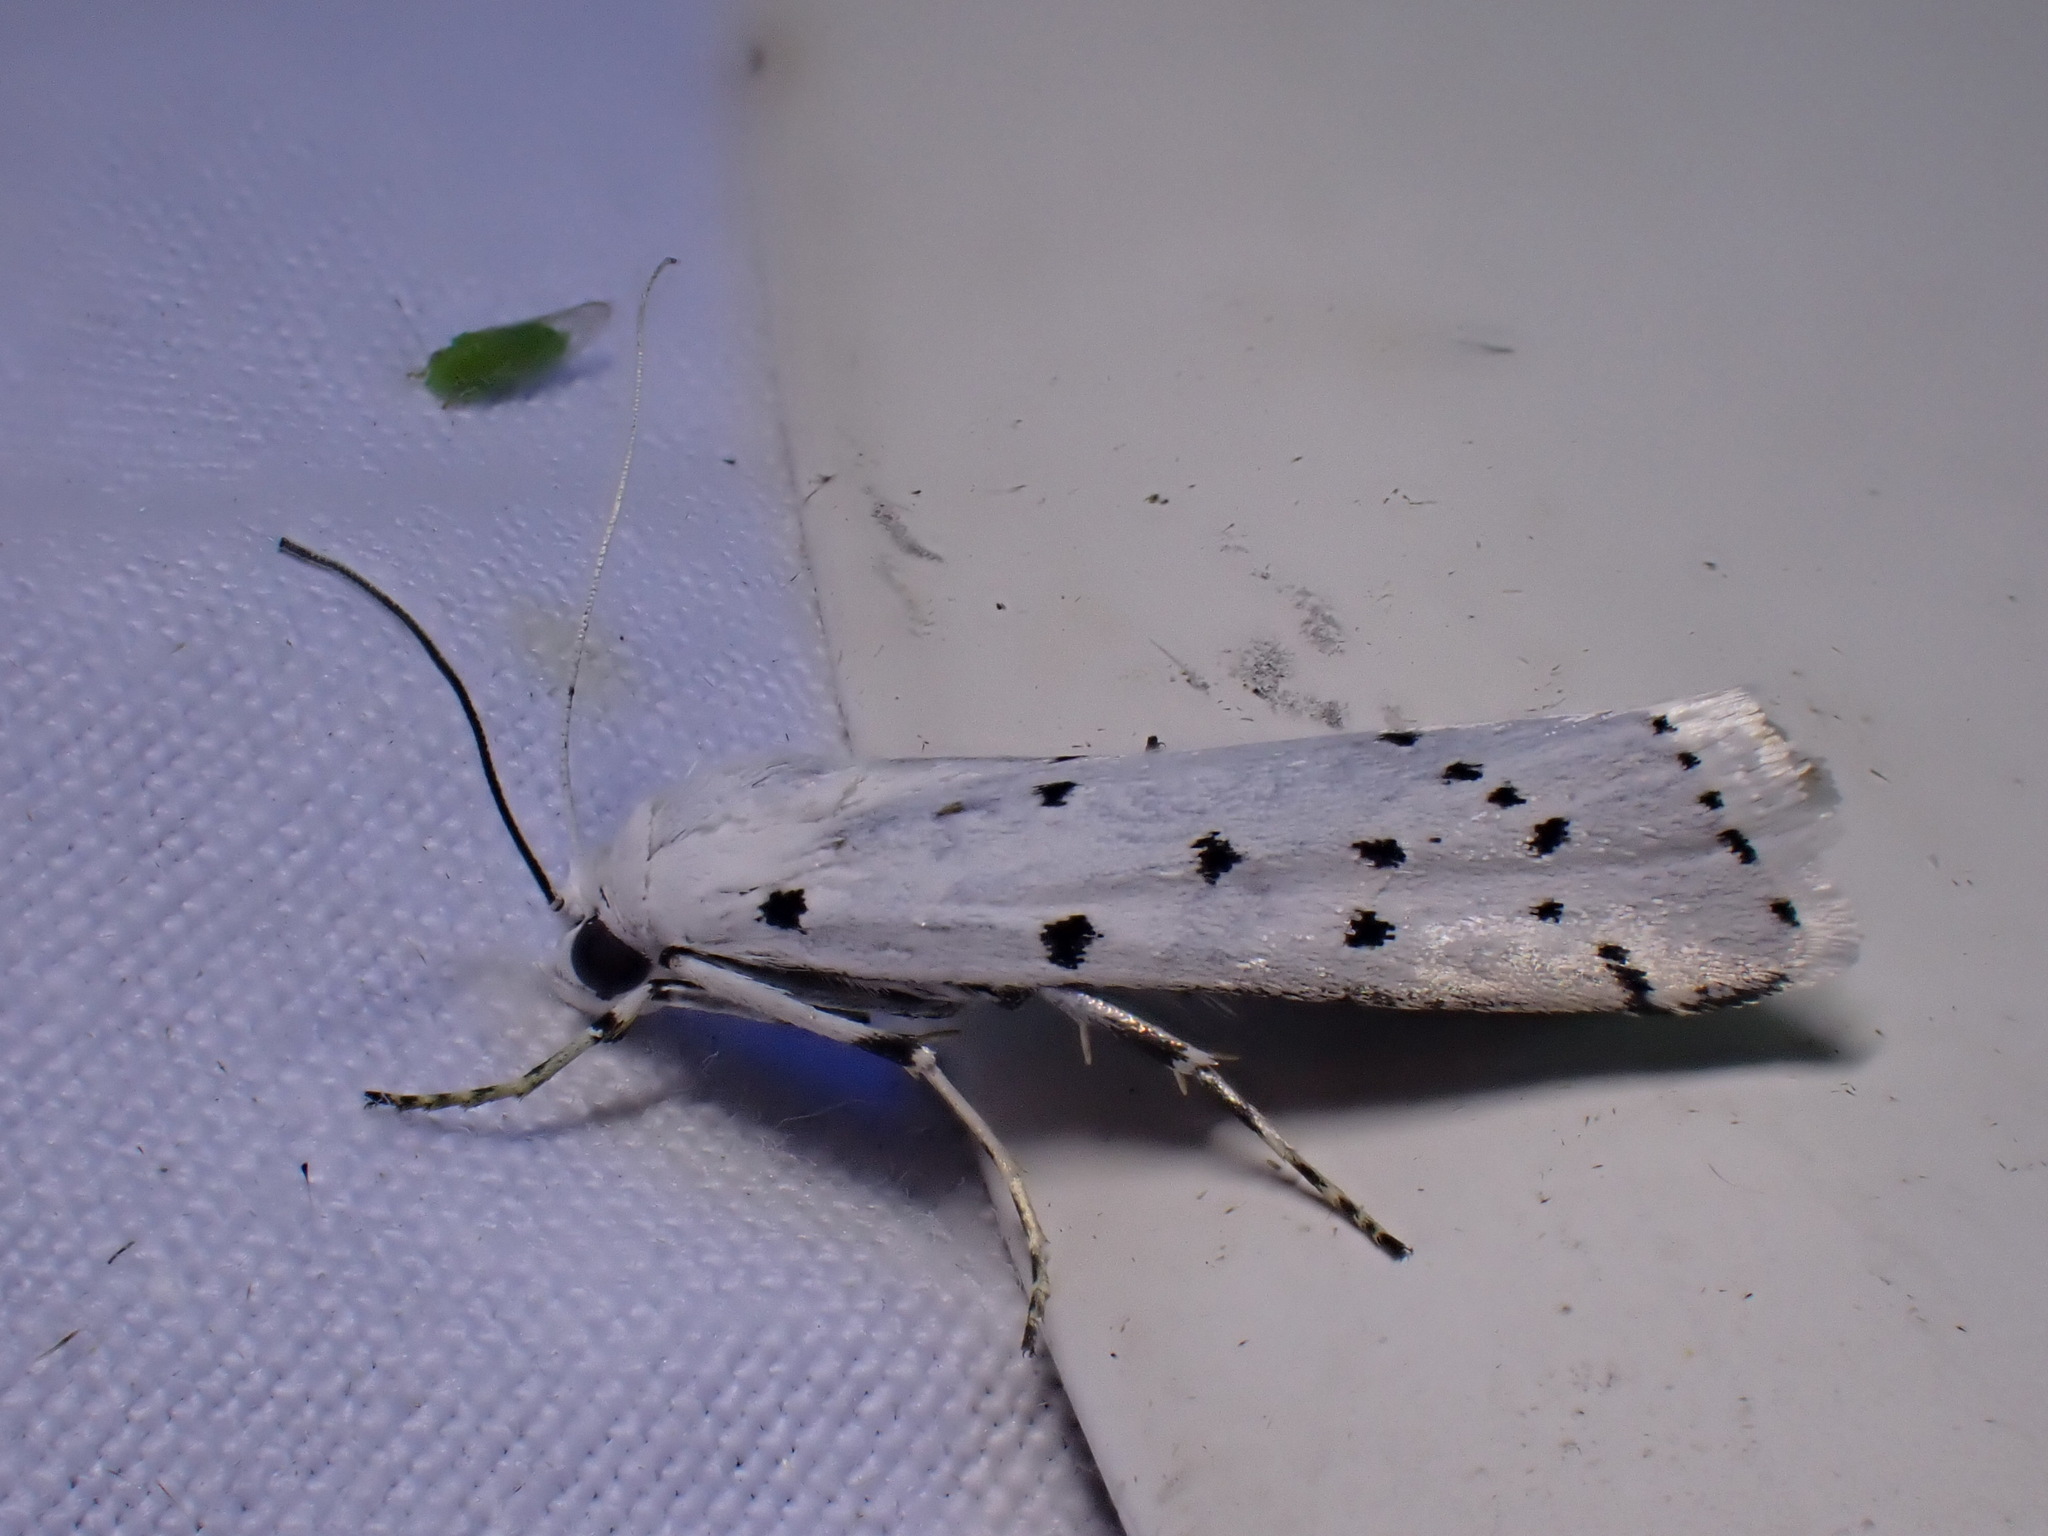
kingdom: Animalia
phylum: Arthropoda
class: Insecta
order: Lepidoptera
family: Pyralidae
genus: Myelois
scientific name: Myelois circumvoluta
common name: Thistle ermine
